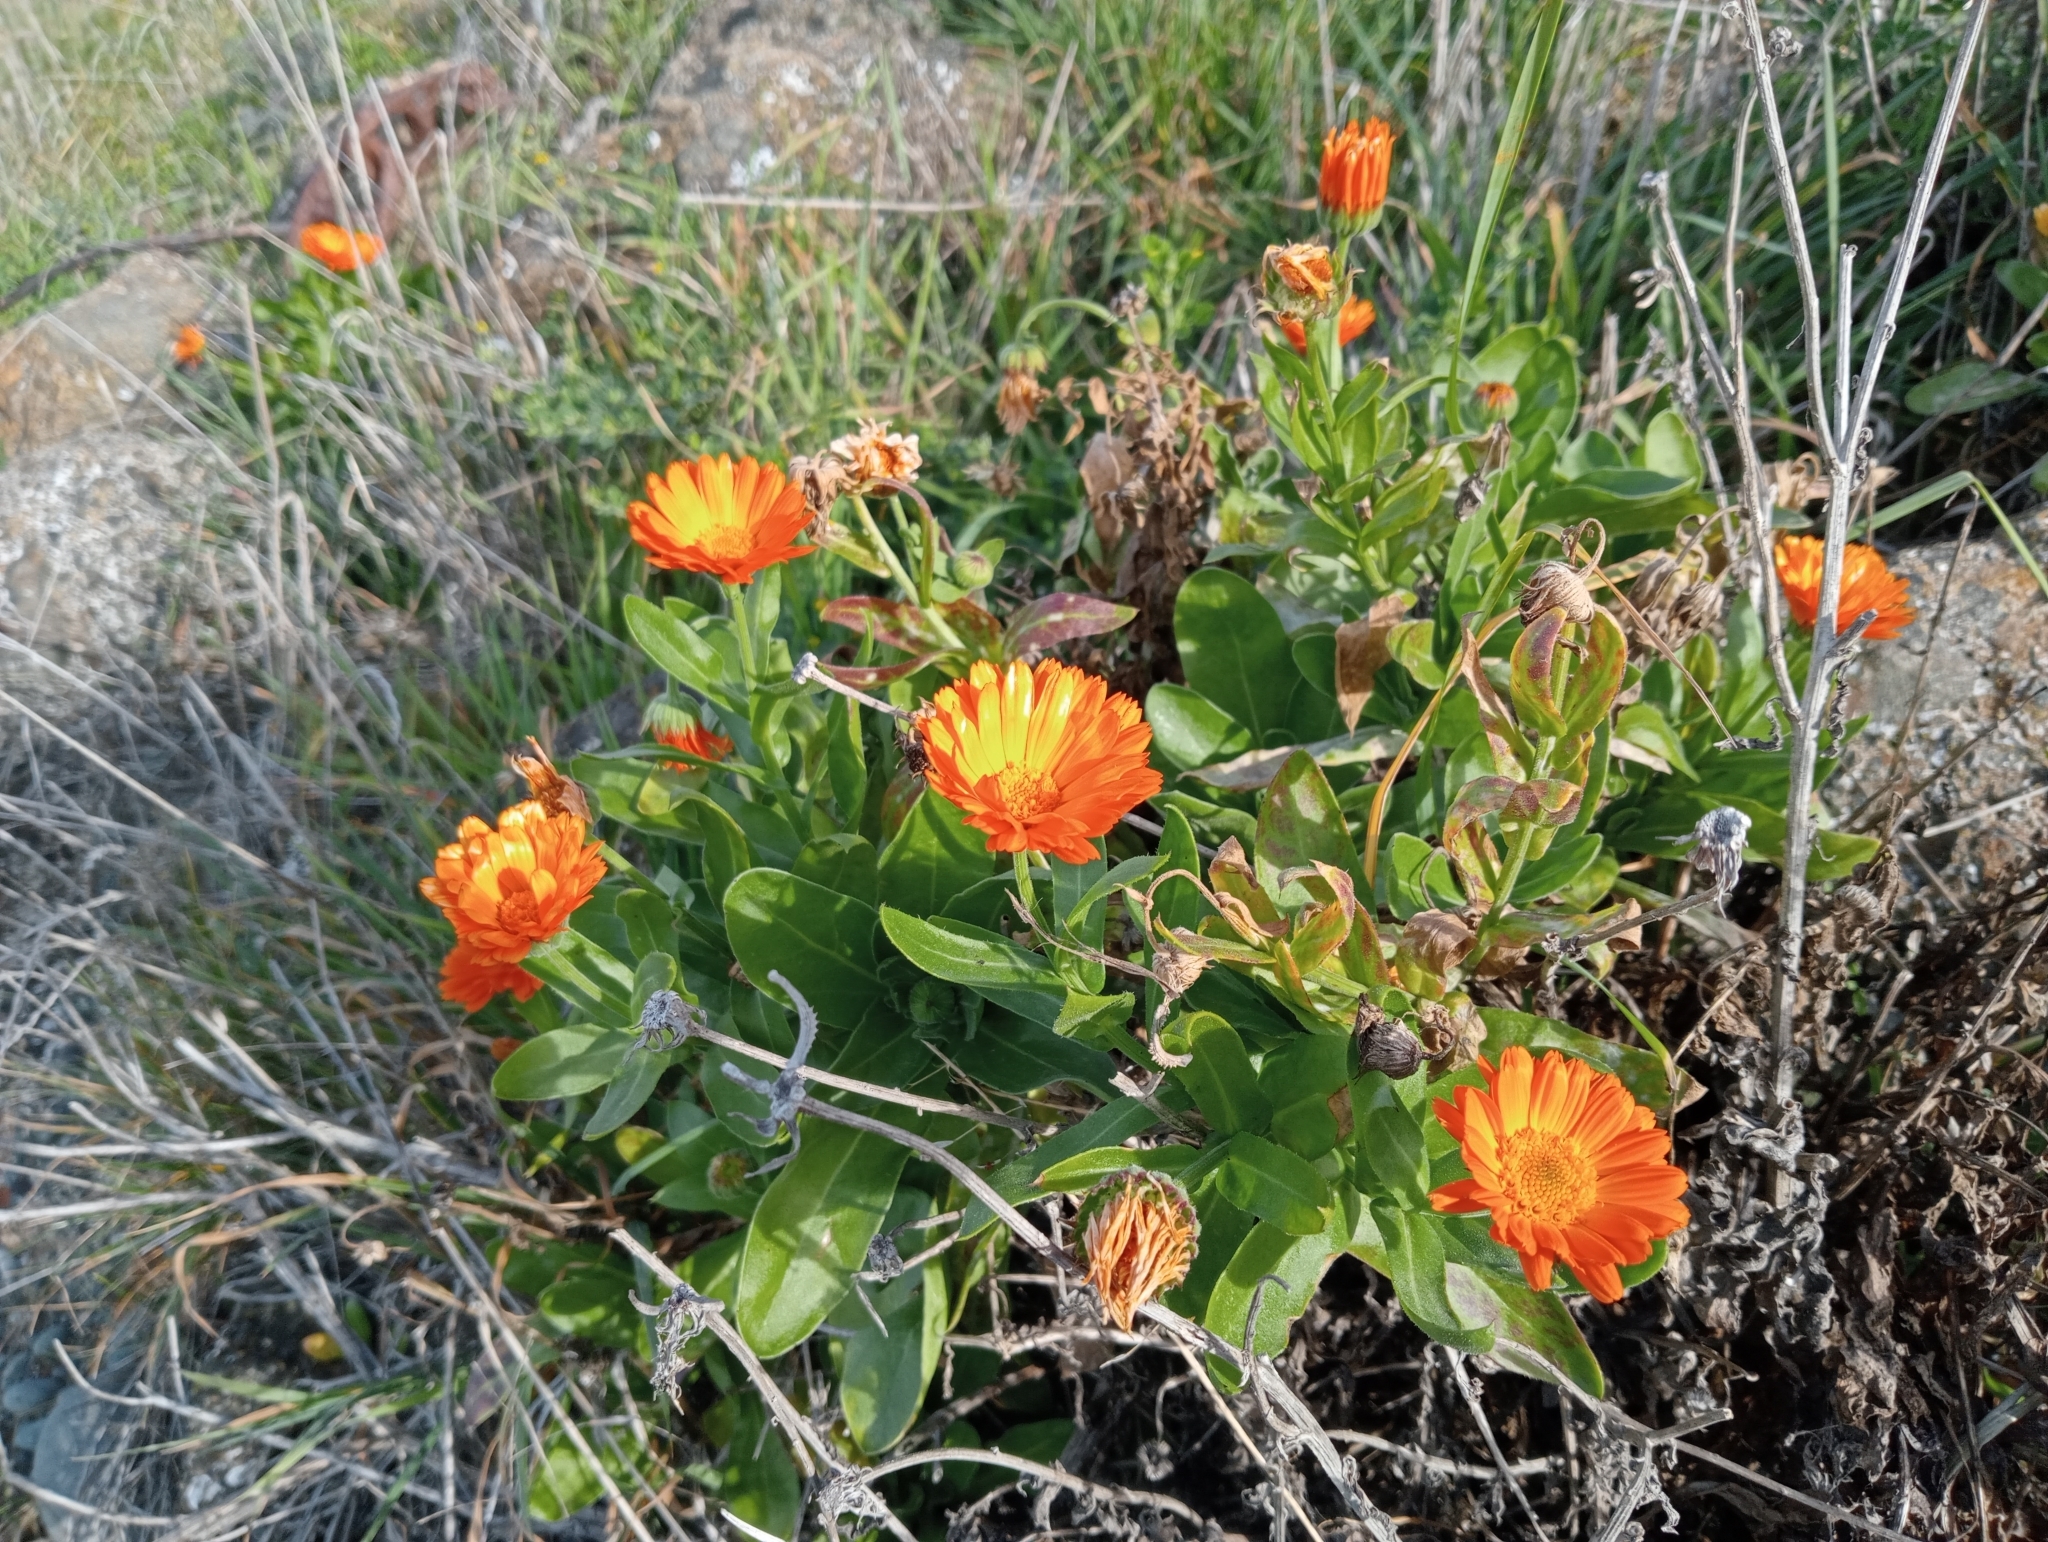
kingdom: Plantae
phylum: Tracheophyta
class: Magnoliopsida
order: Asterales
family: Asteraceae
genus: Calendula
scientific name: Calendula officinalis
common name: Pot marigold
